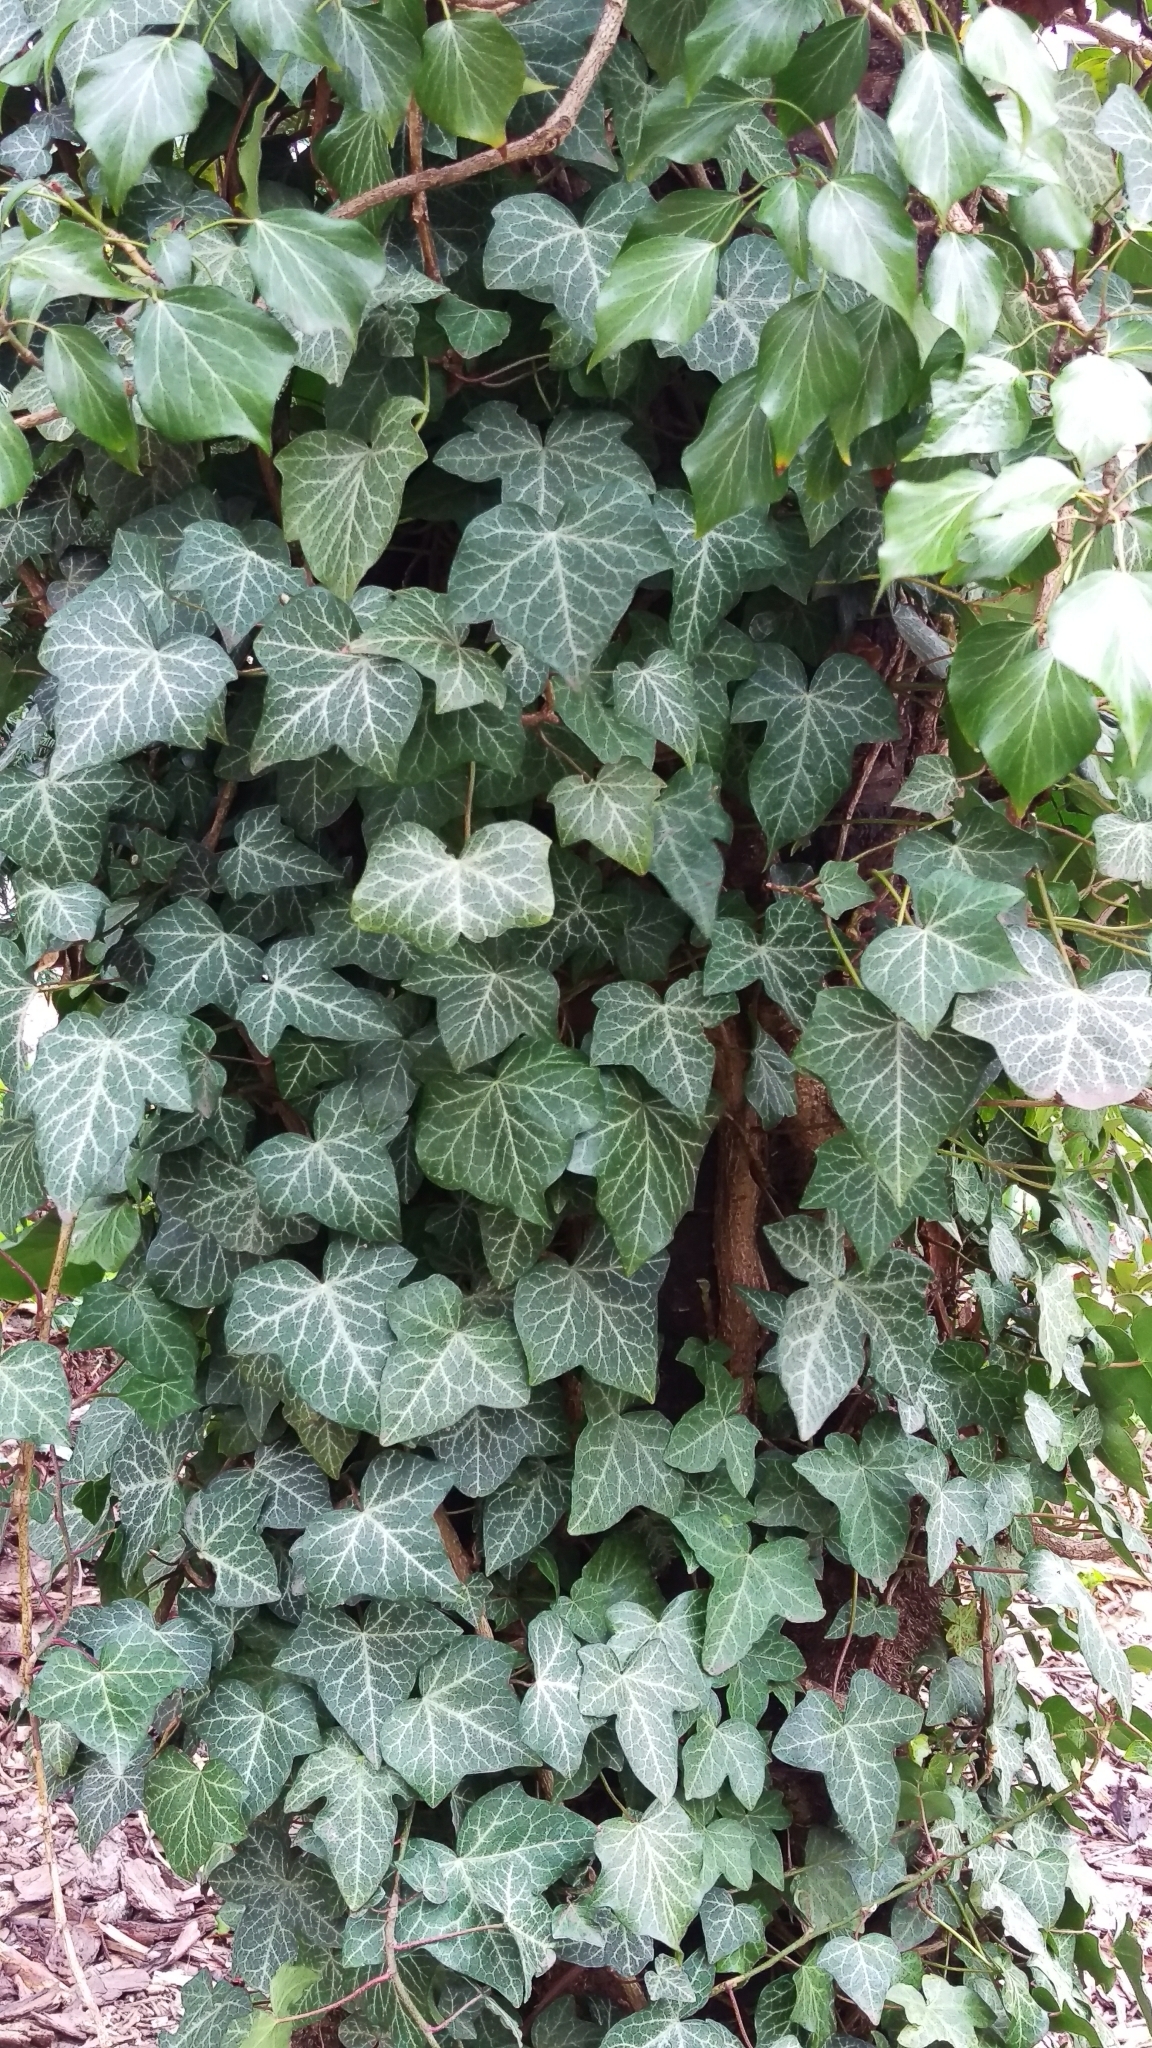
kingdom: Plantae
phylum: Tracheophyta
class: Magnoliopsida
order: Apiales
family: Araliaceae
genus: Hedera
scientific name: Hedera helix
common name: Ivy
